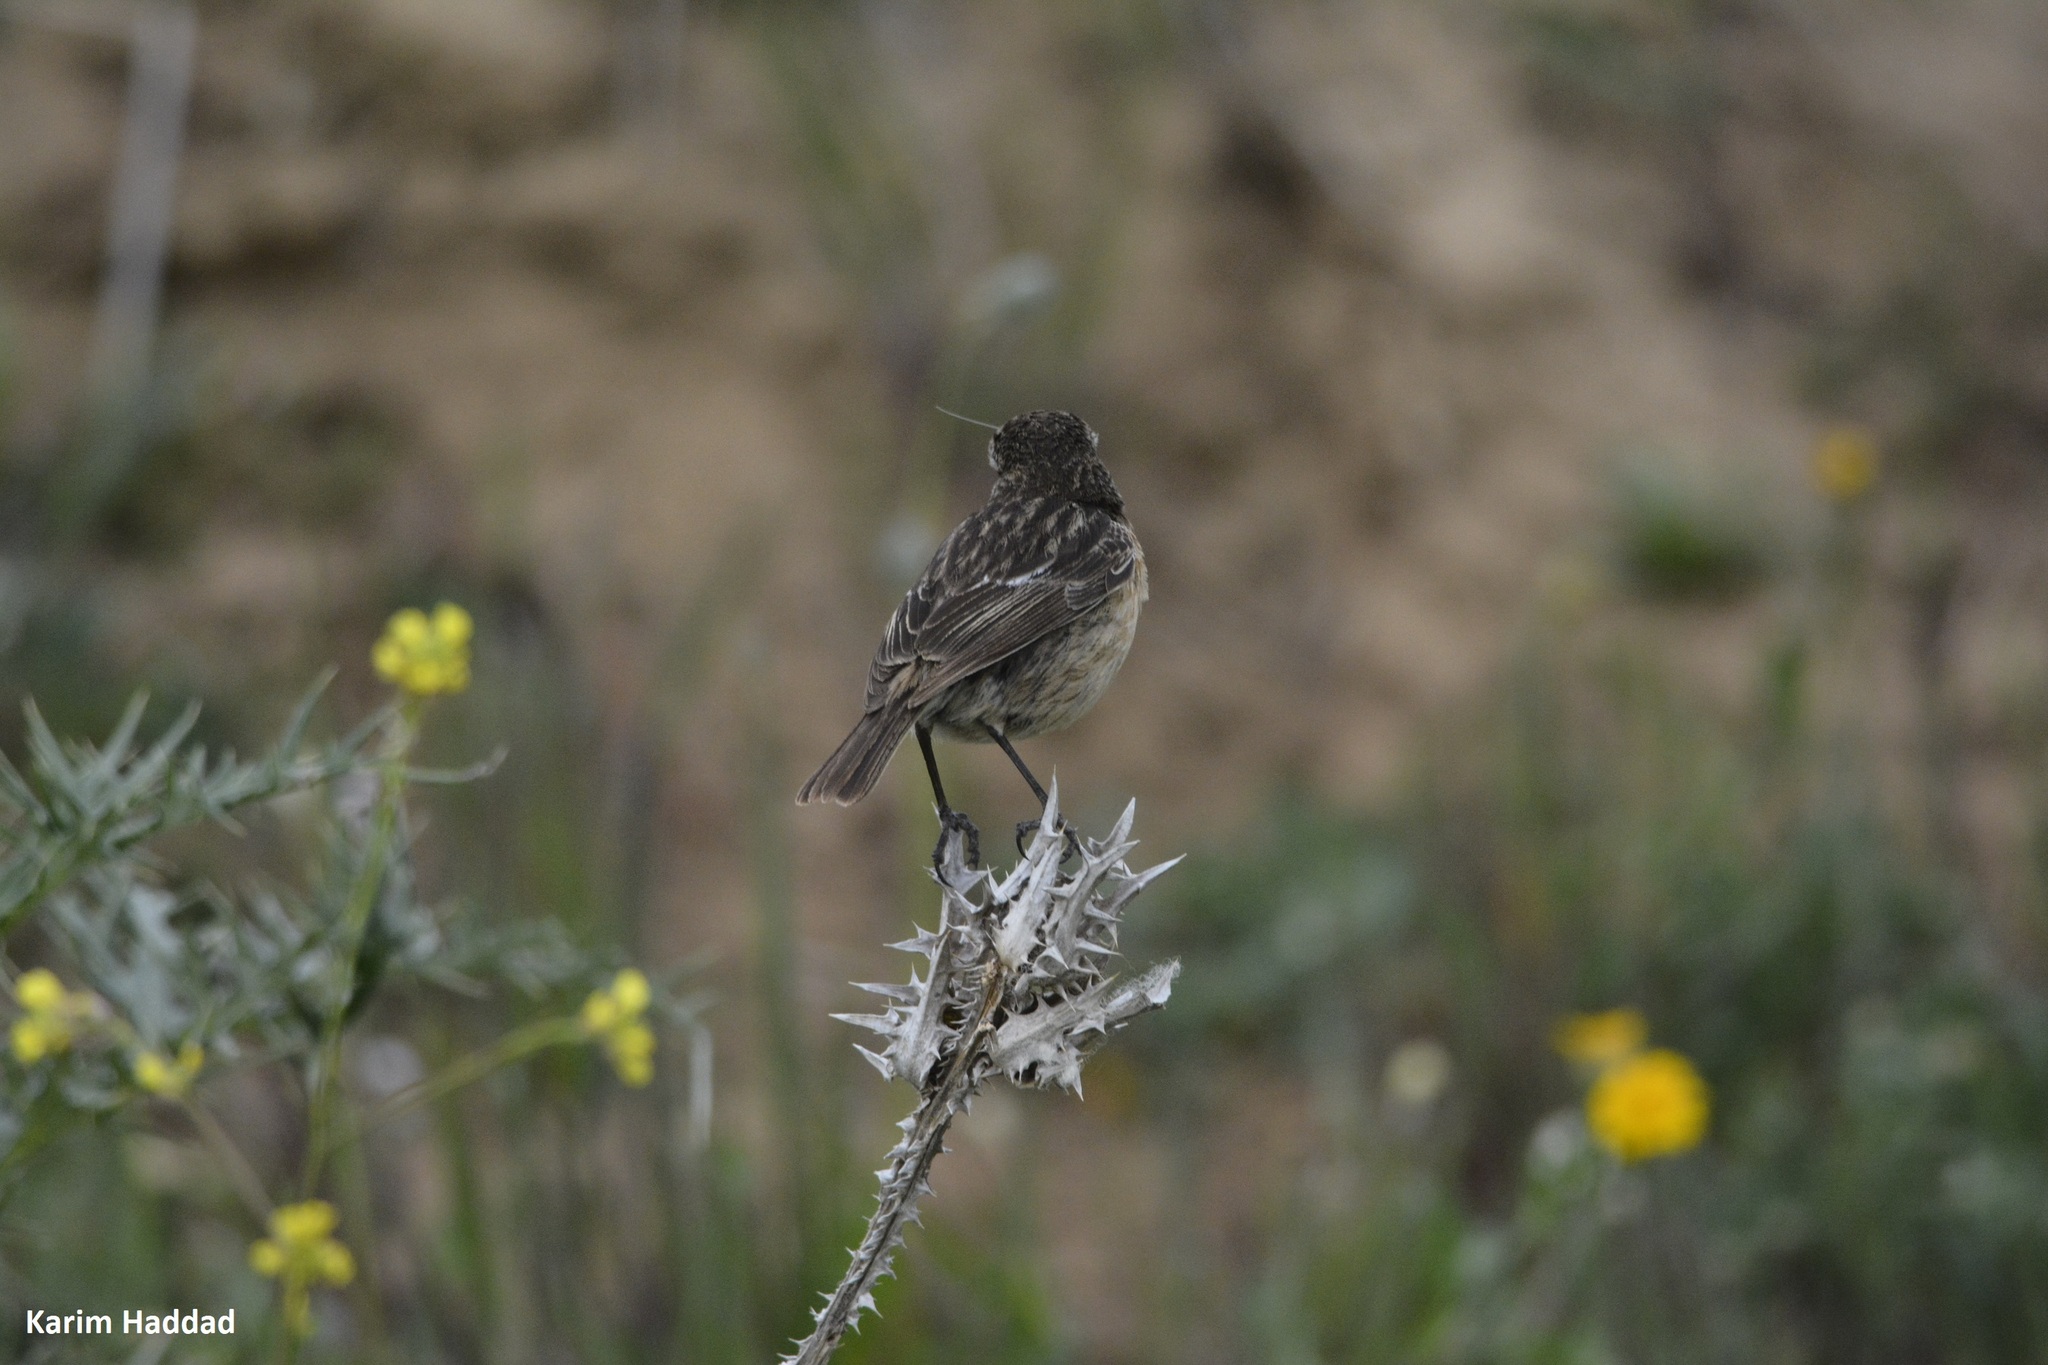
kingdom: Animalia
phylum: Chordata
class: Aves
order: Passeriformes
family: Muscicapidae
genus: Saxicola
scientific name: Saxicola rubicola
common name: European stonechat
